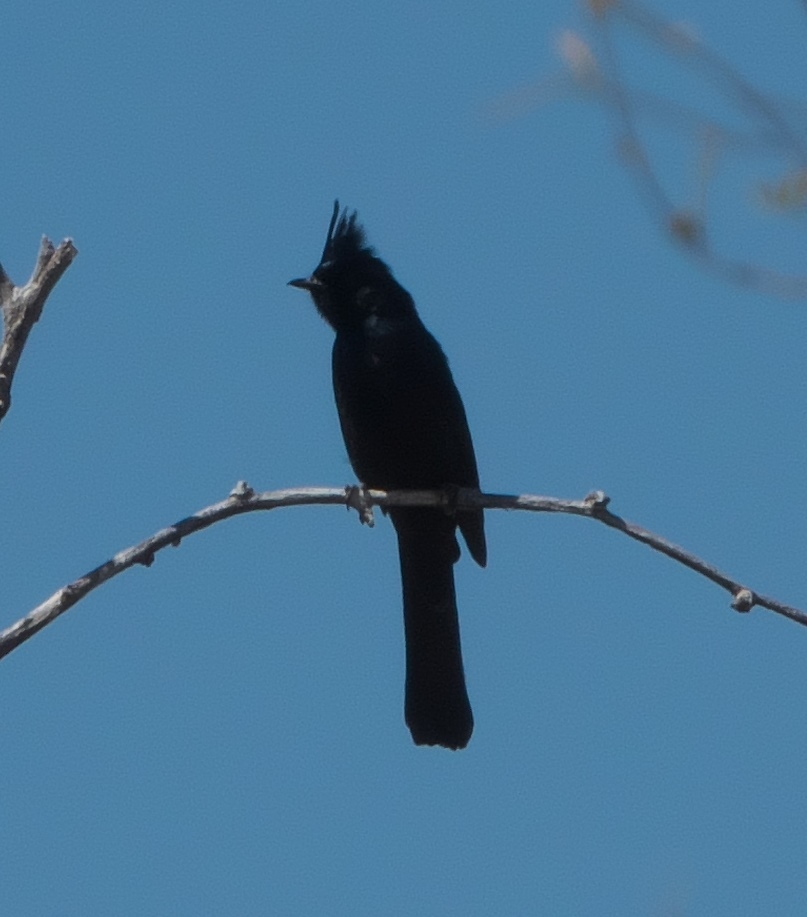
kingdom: Animalia
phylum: Chordata
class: Aves
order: Passeriformes
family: Ptilogonatidae
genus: Phainopepla
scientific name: Phainopepla nitens
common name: Phainopepla
